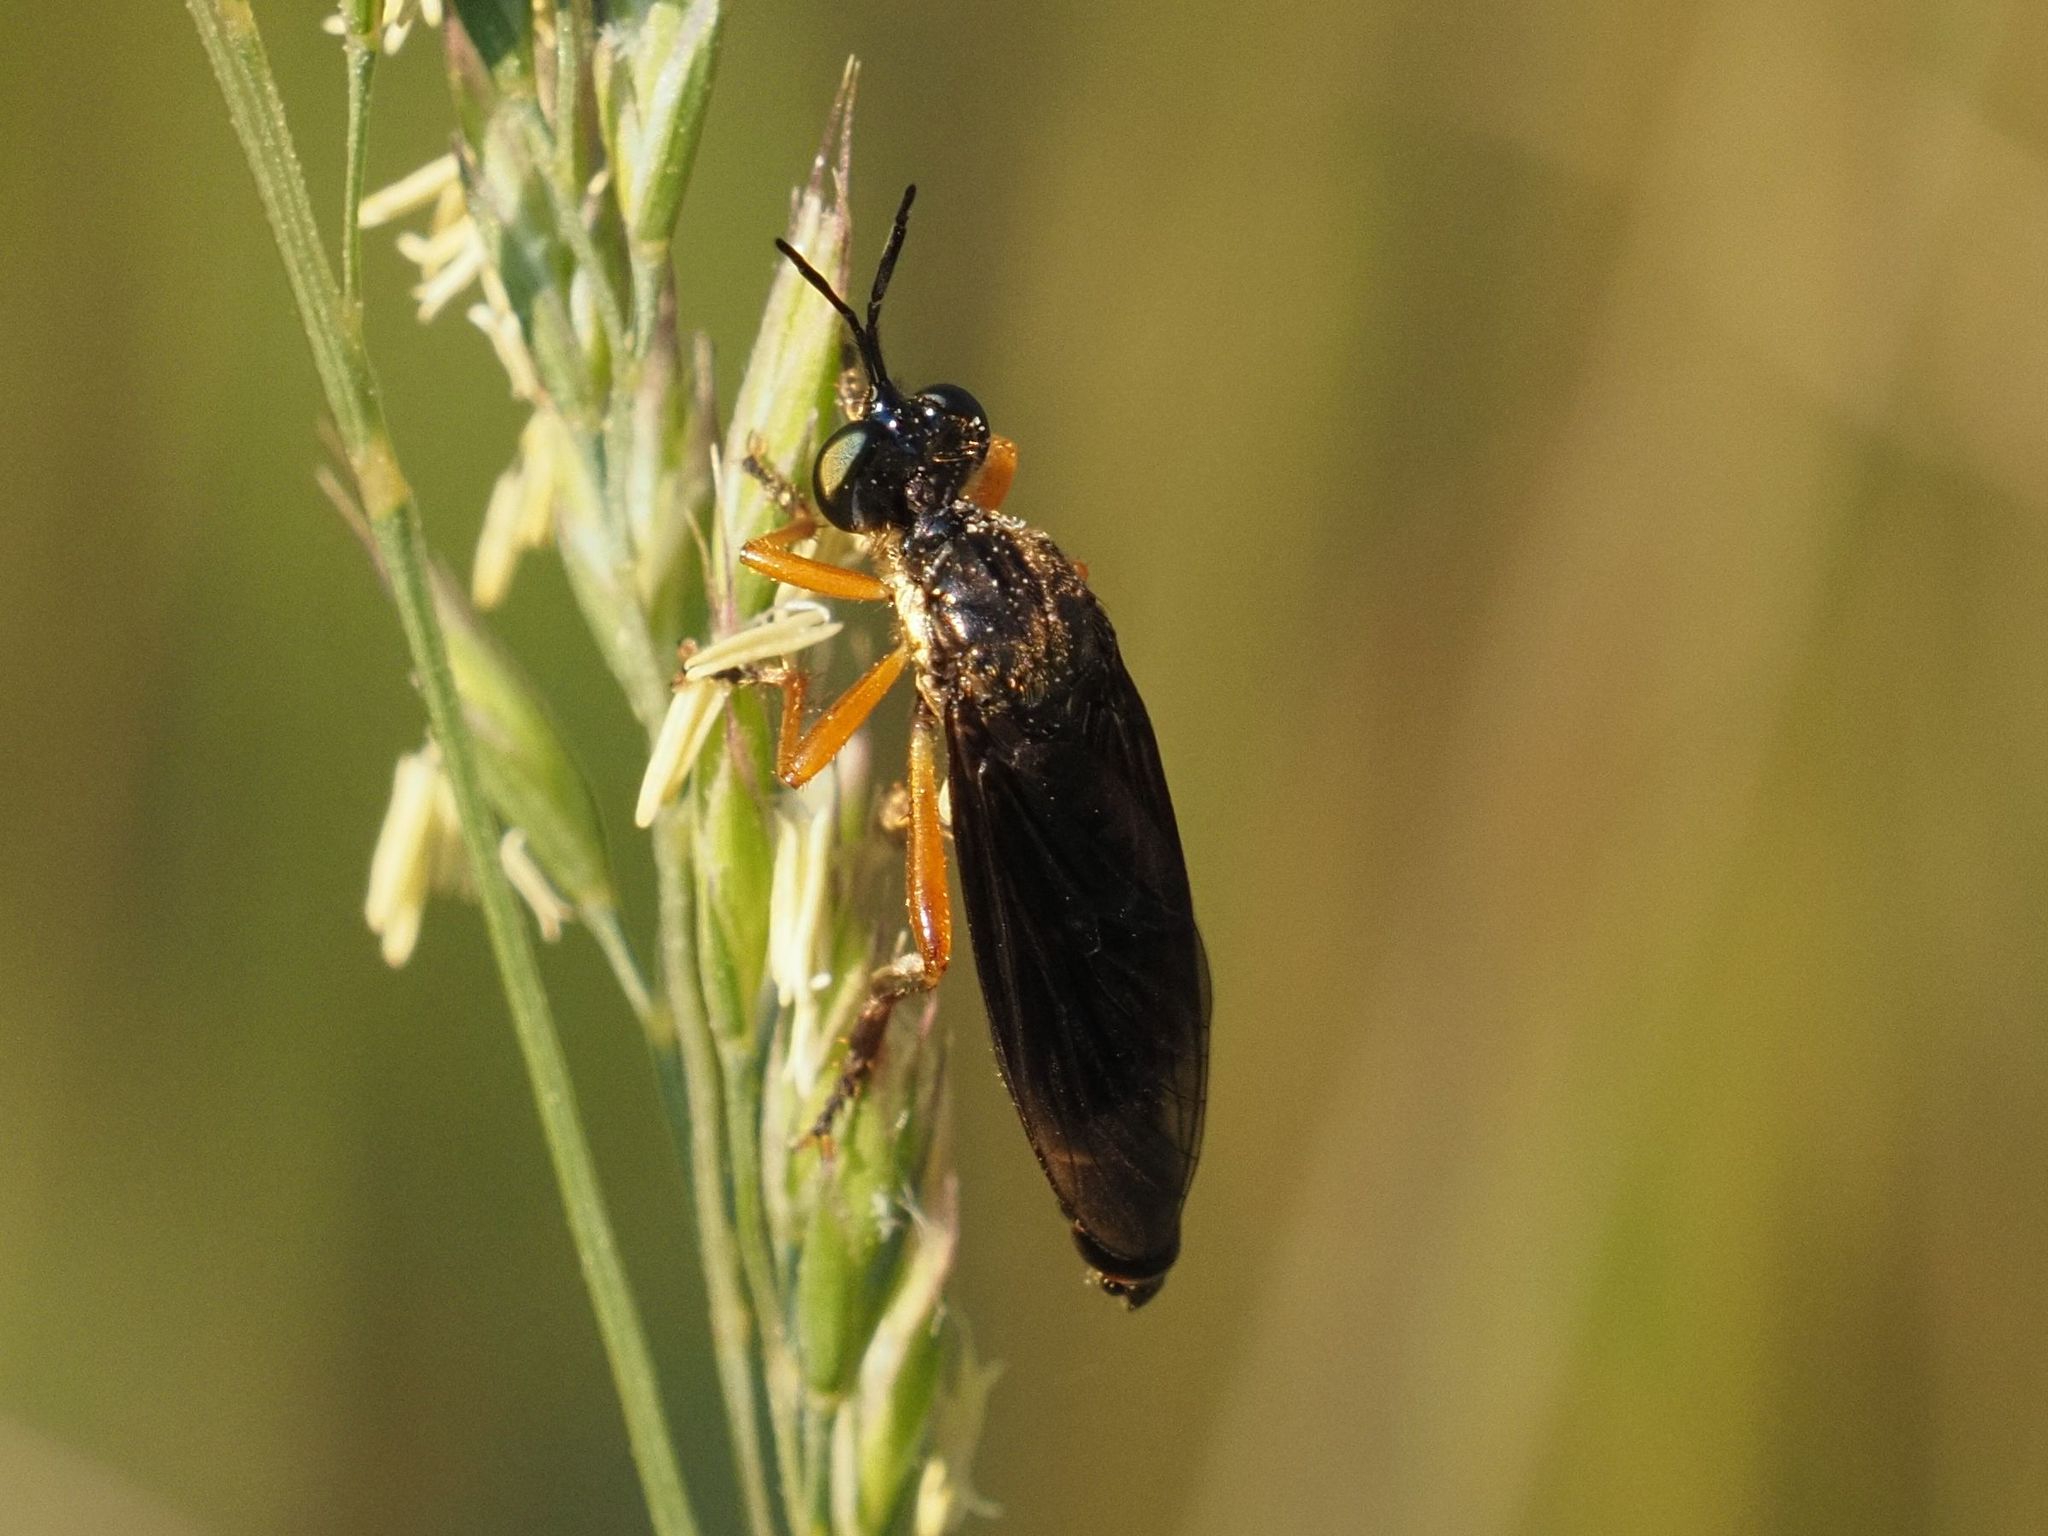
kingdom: Animalia
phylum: Arthropoda
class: Insecta
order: Diptera
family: Asilidae
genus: Dioctria
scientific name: Dioctria flavipennis
